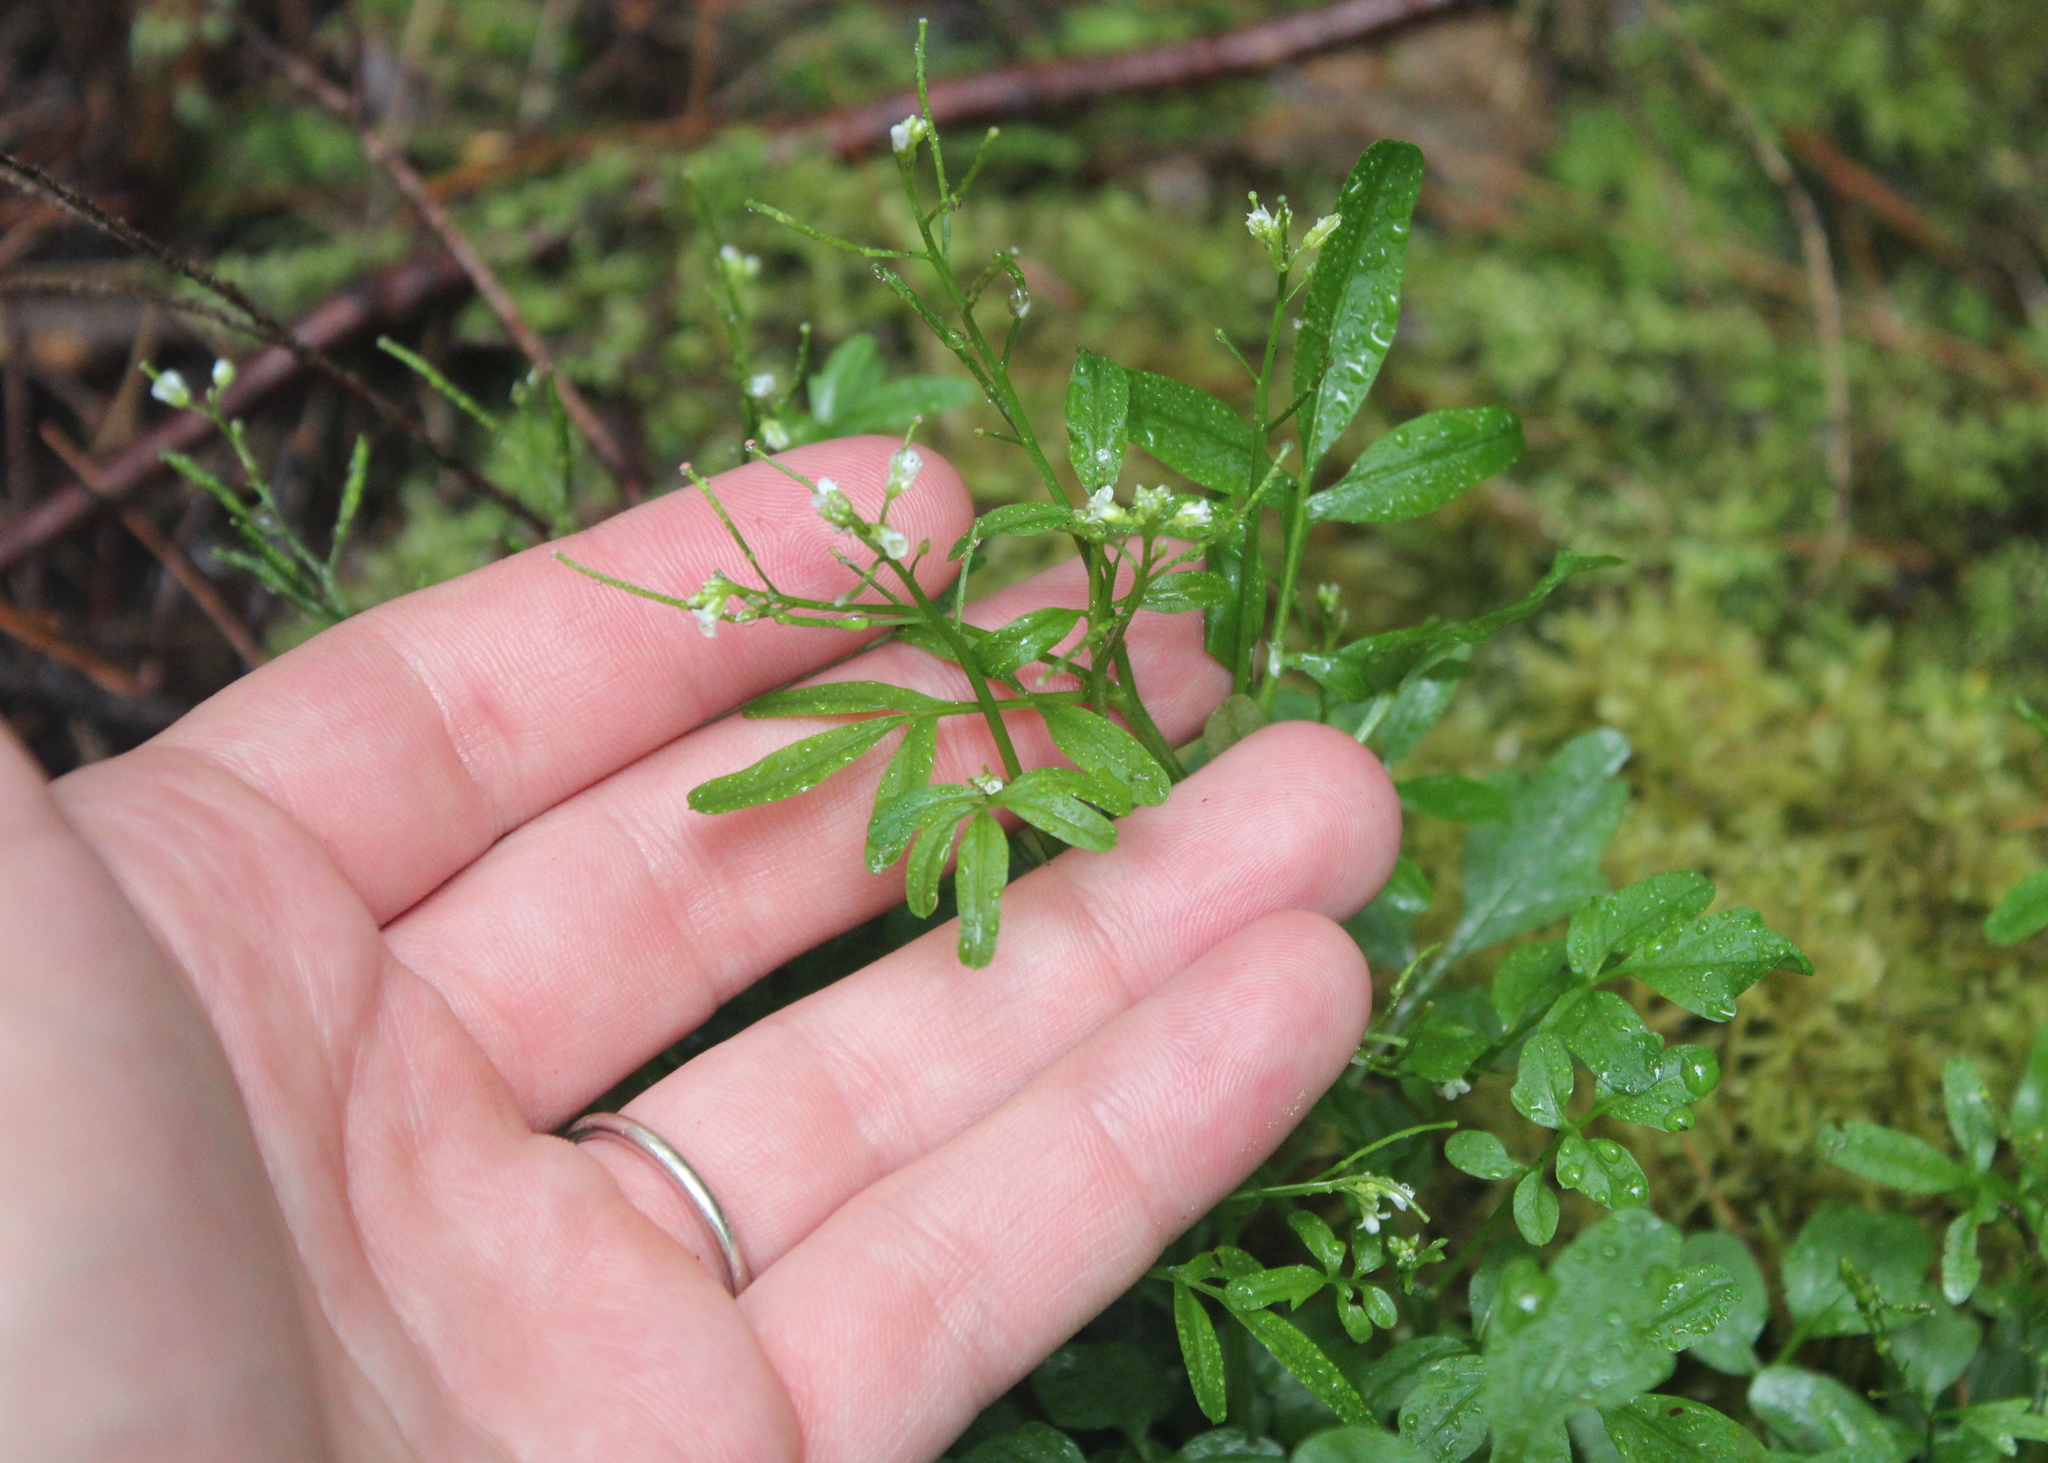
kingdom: Plantae
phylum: Tracheophyta
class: Magnoliopsida
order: Brassicales
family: Brassicaceae
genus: Cardamine
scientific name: Cardamine pensylvanica
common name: Pennsylvania bittercress
